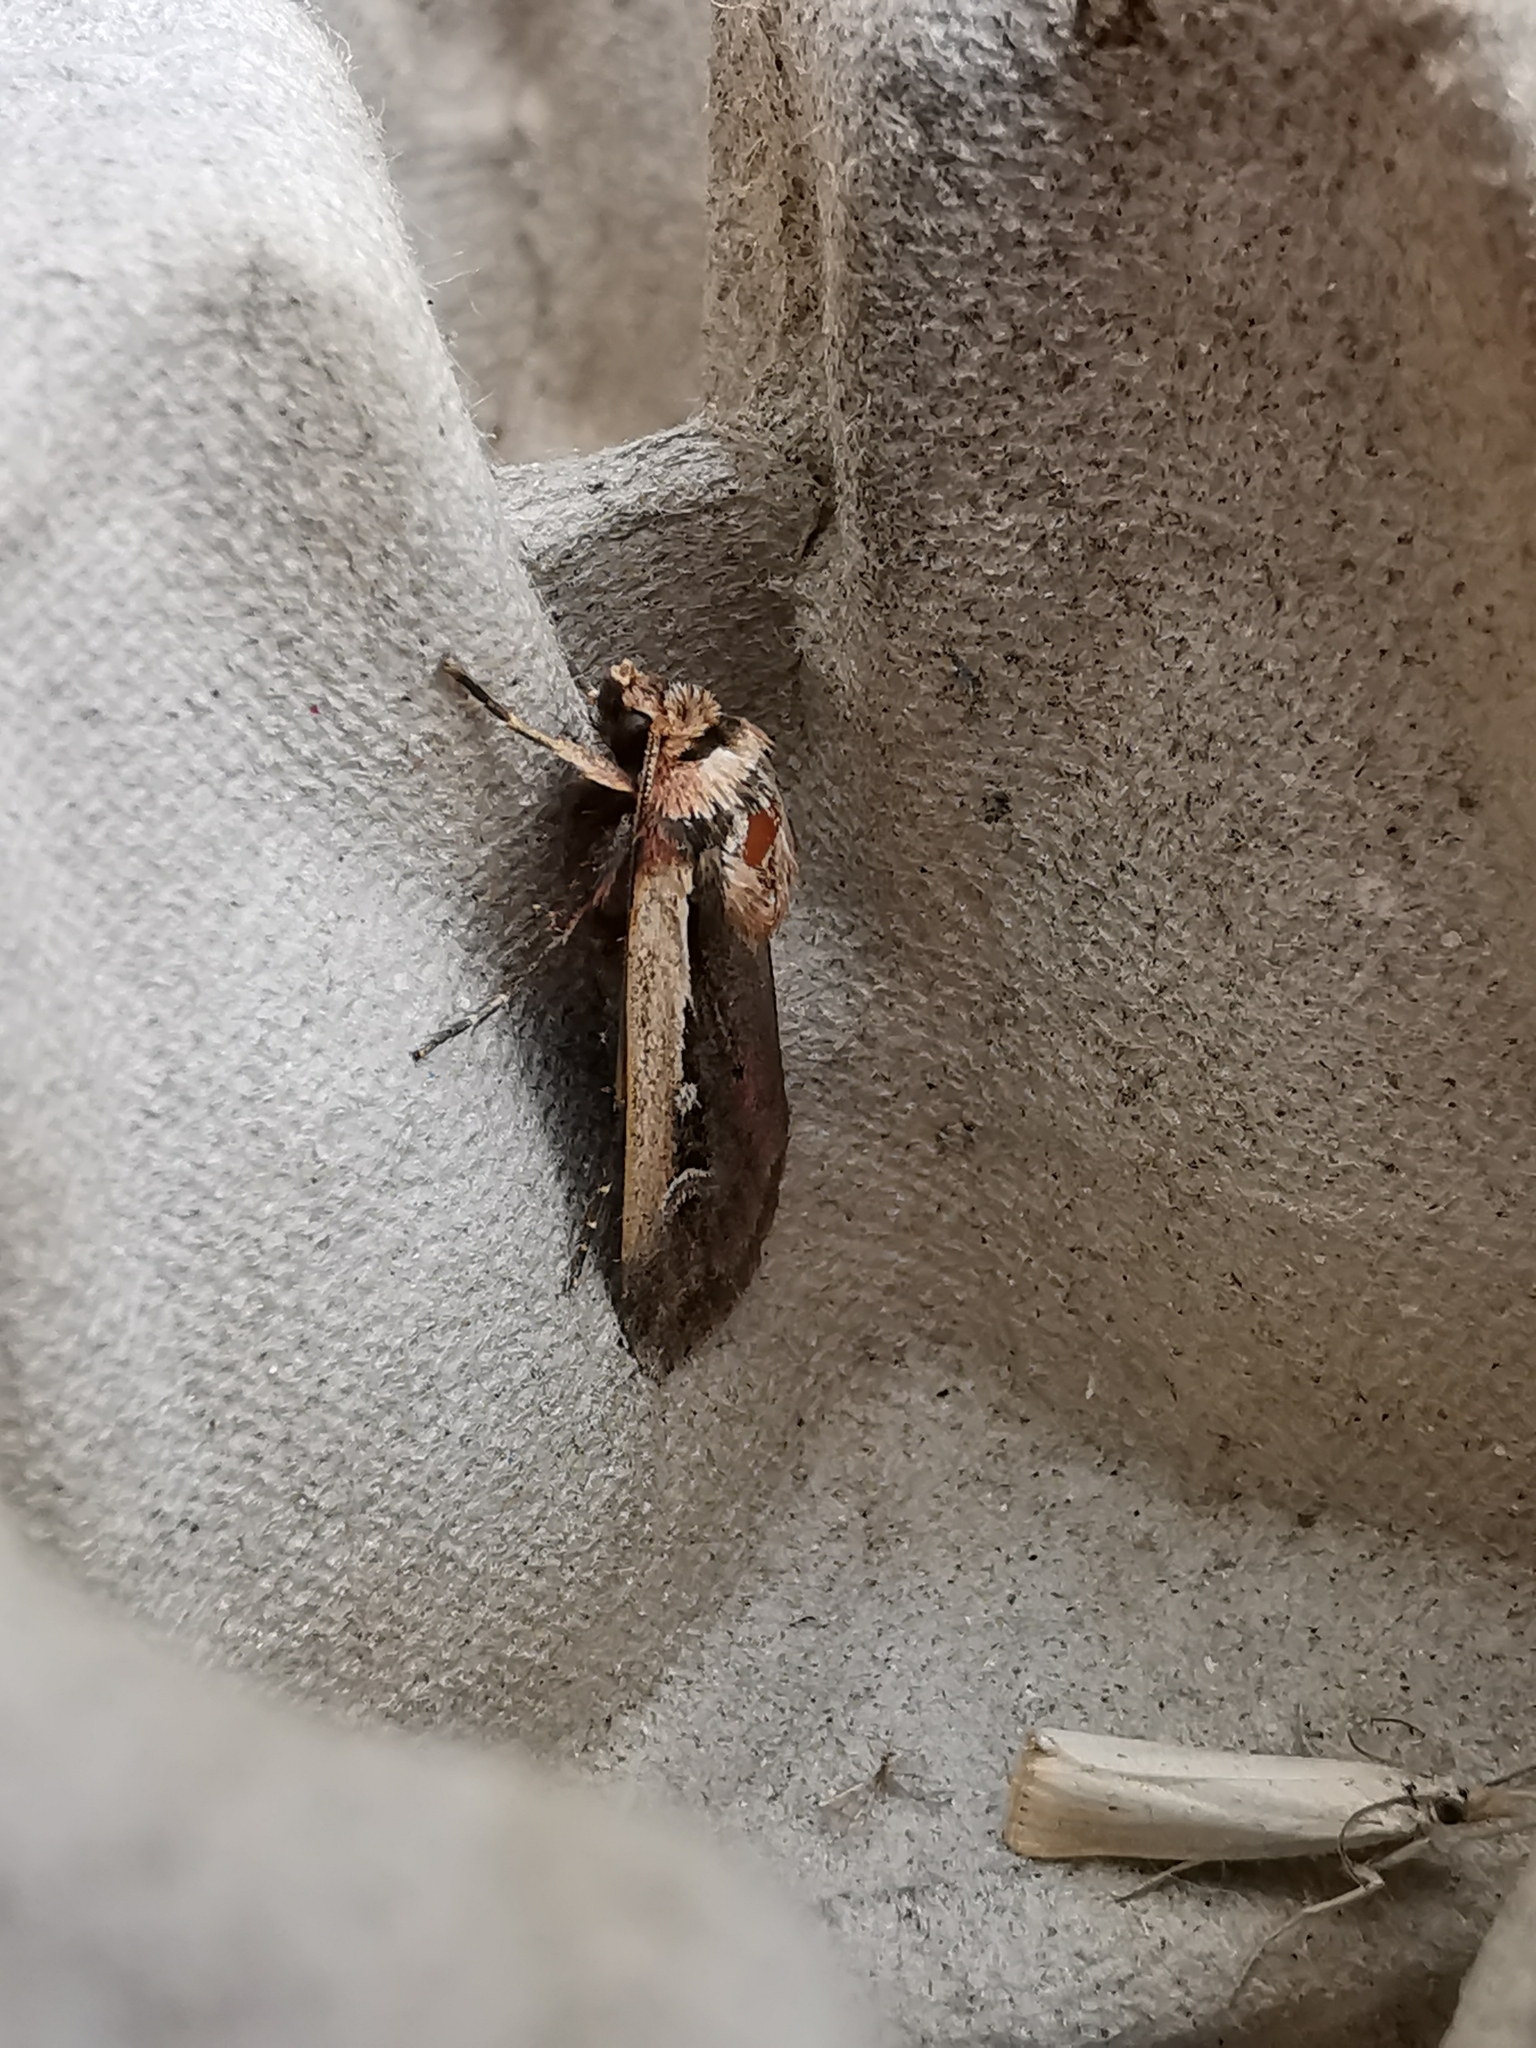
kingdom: Animalia
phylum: Arthropoda
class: Insecta
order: Lepidoptera
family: Noctuidae
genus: Ochropleura
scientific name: Ochropleura plecta
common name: Flame shoulder
